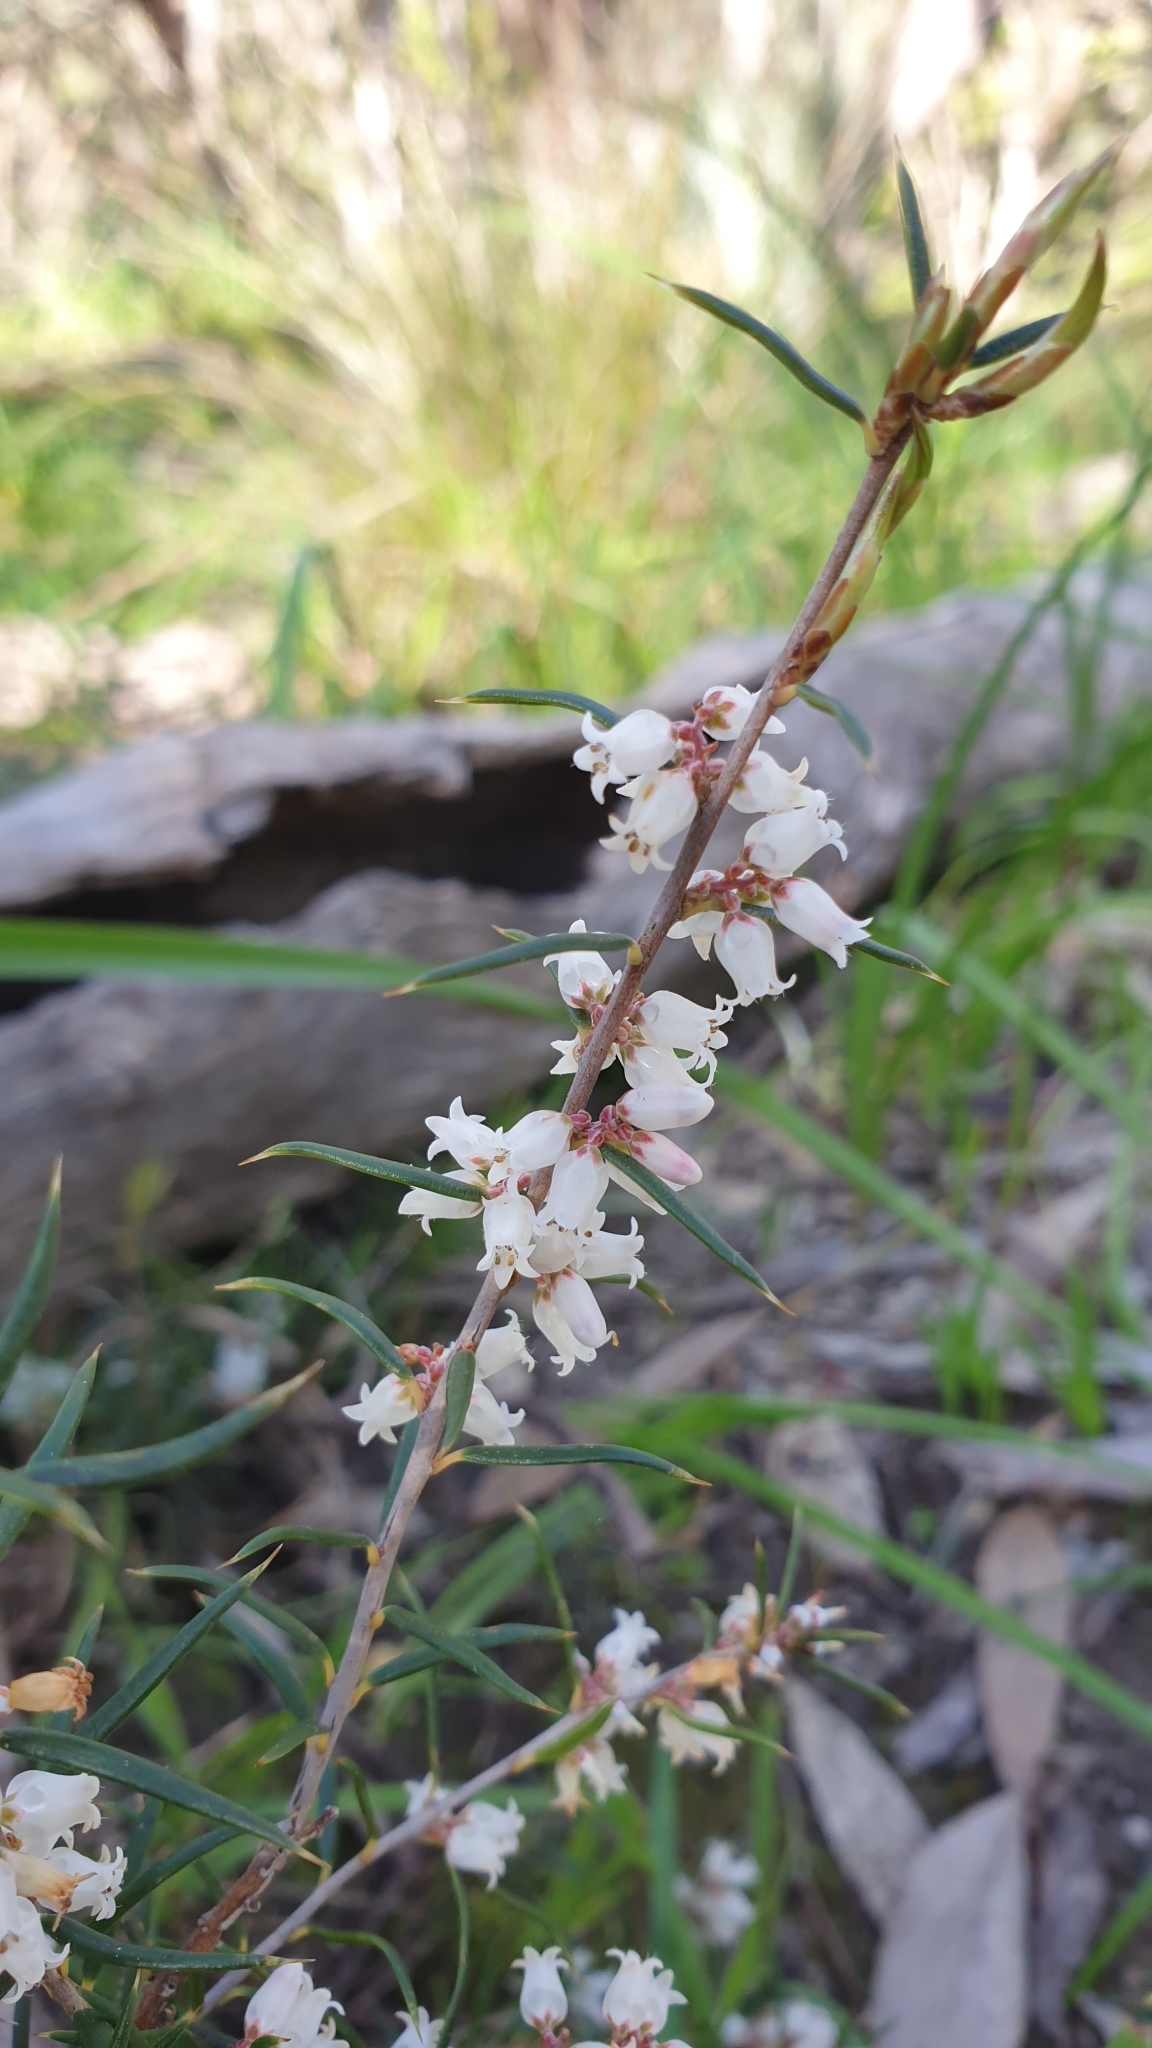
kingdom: Plantae
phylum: Tracheophyta
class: Magnoliopsida
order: Ericales
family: Ericaceae
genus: Lissanthe
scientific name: Lissanthe strigosa
